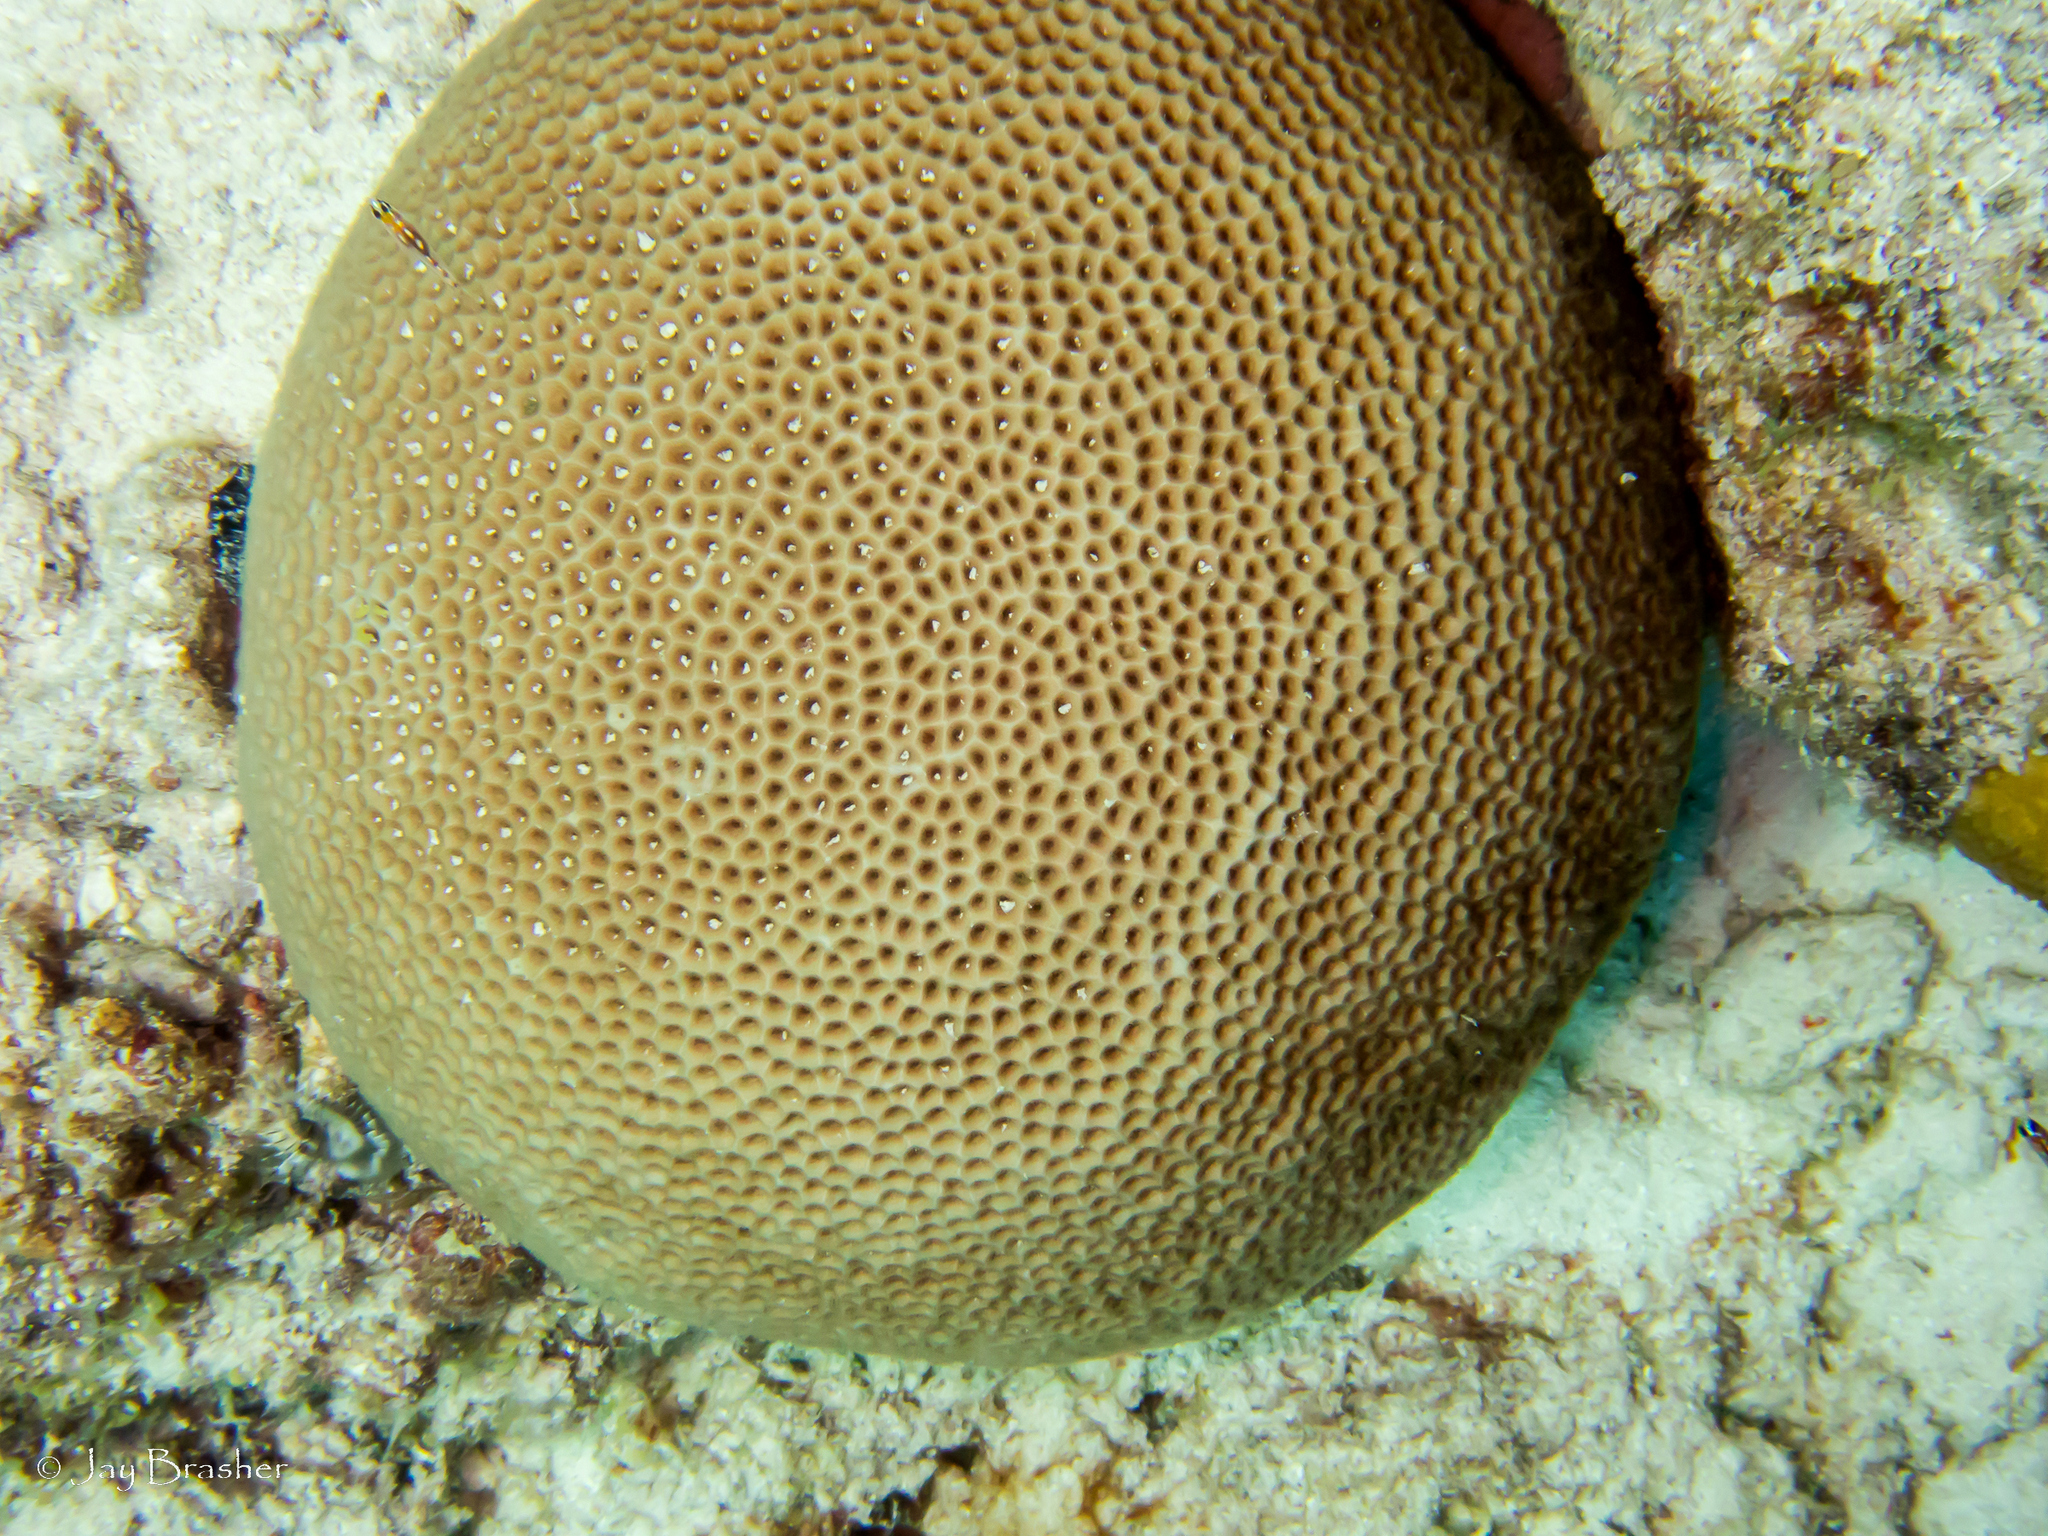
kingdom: Animalia
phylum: Cnidaria
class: Anthozoa
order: Scleractinia
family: Rhizangiidae
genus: Siderastrea
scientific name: Siderastrea siderea
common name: Massive starlet coral
